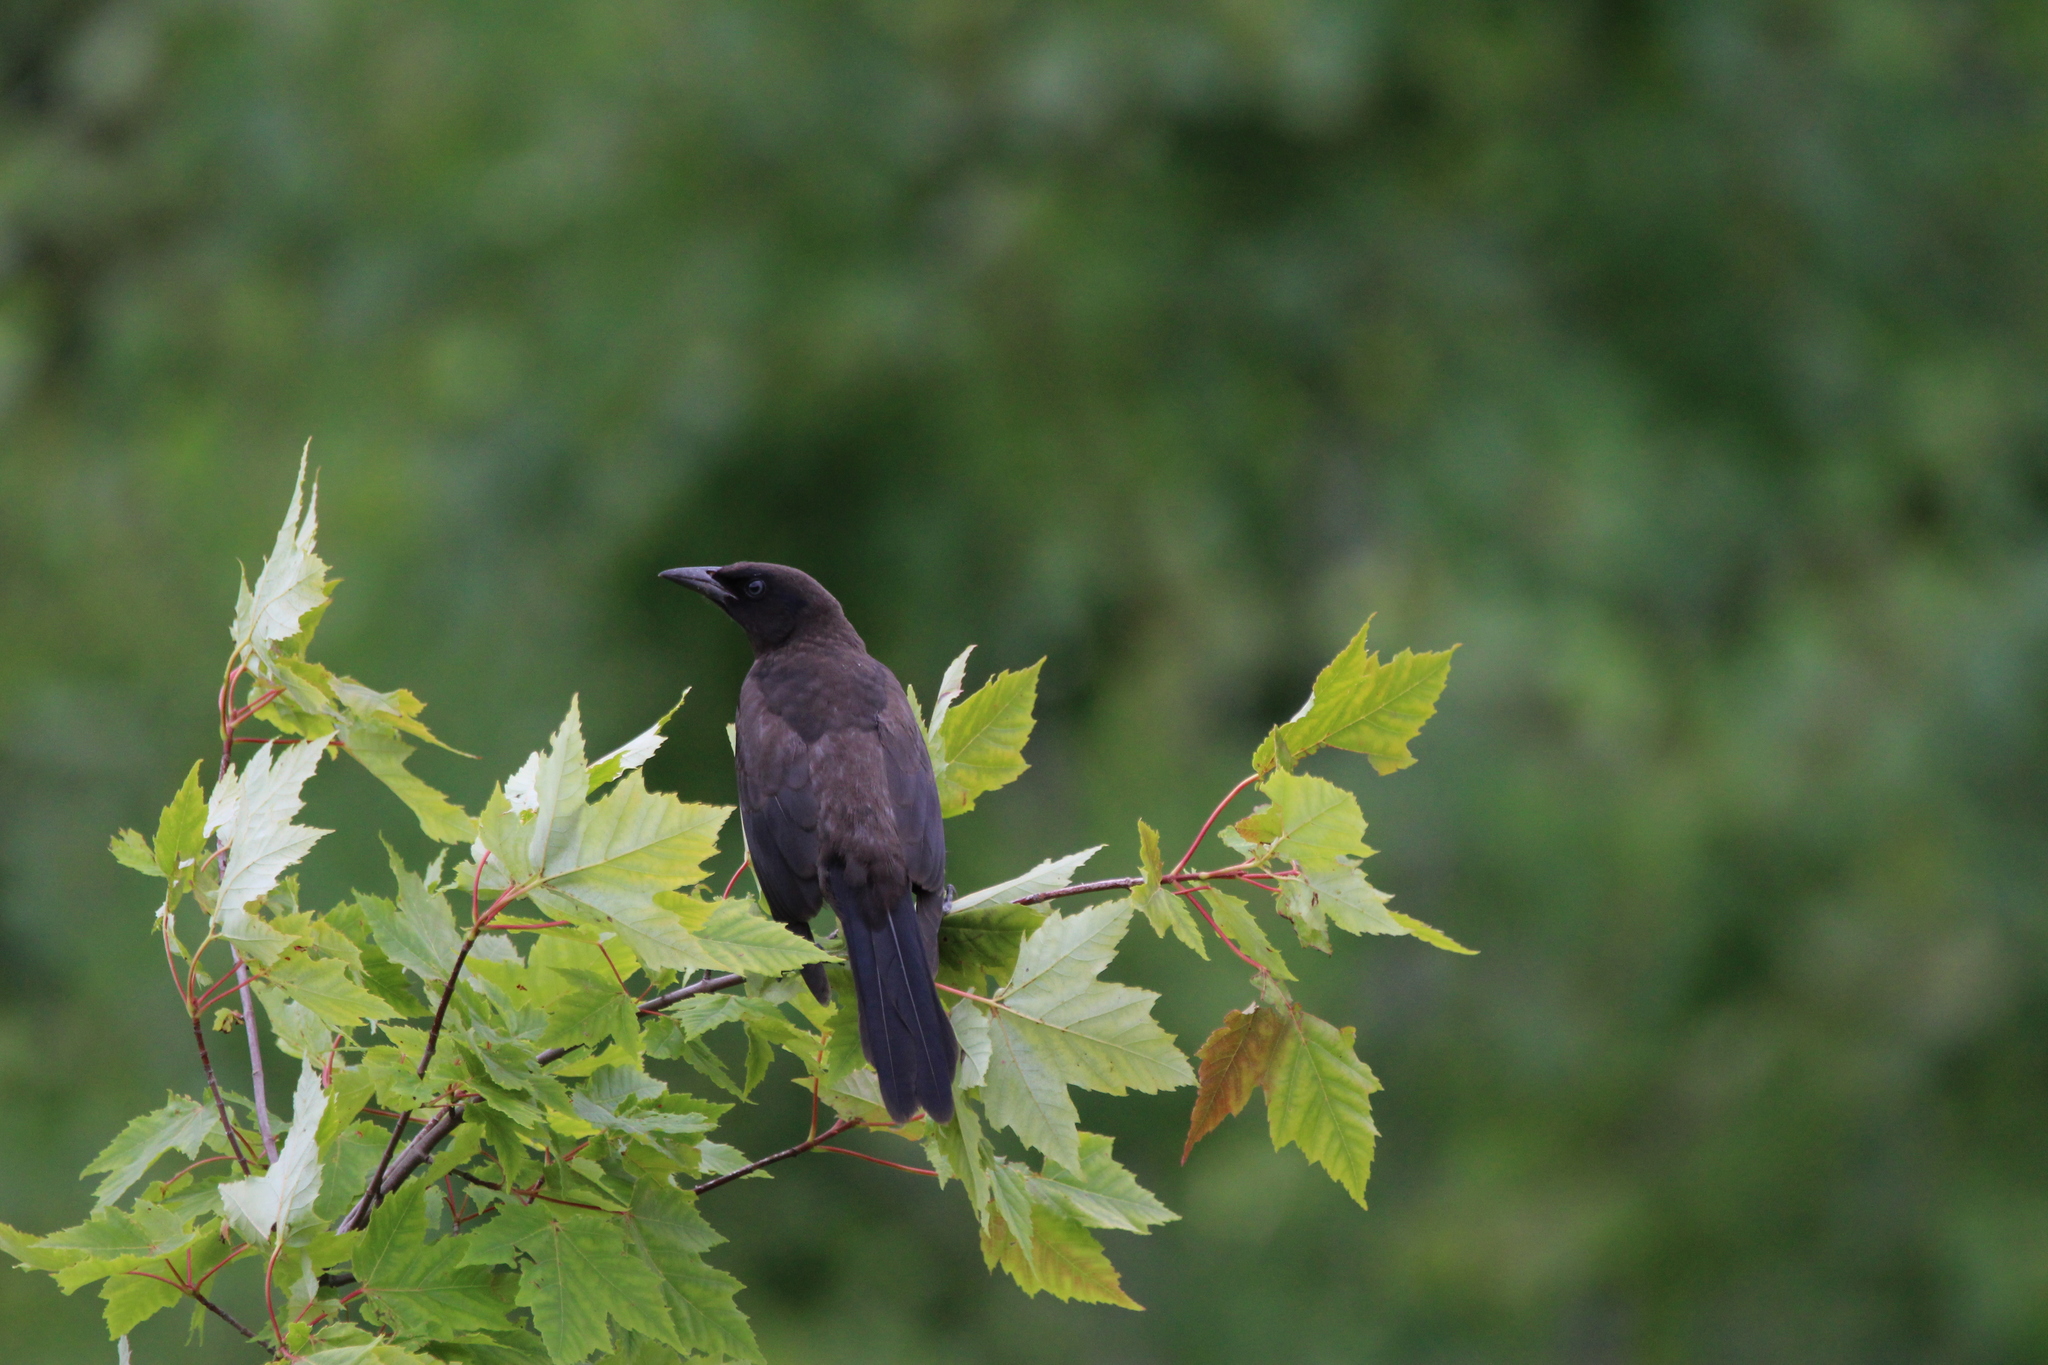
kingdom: Animalia
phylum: Chordata
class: Aves
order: Passeriformes
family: Icteridae
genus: Quiscalus
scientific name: Quiscalus quiscula
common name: Common grackle
